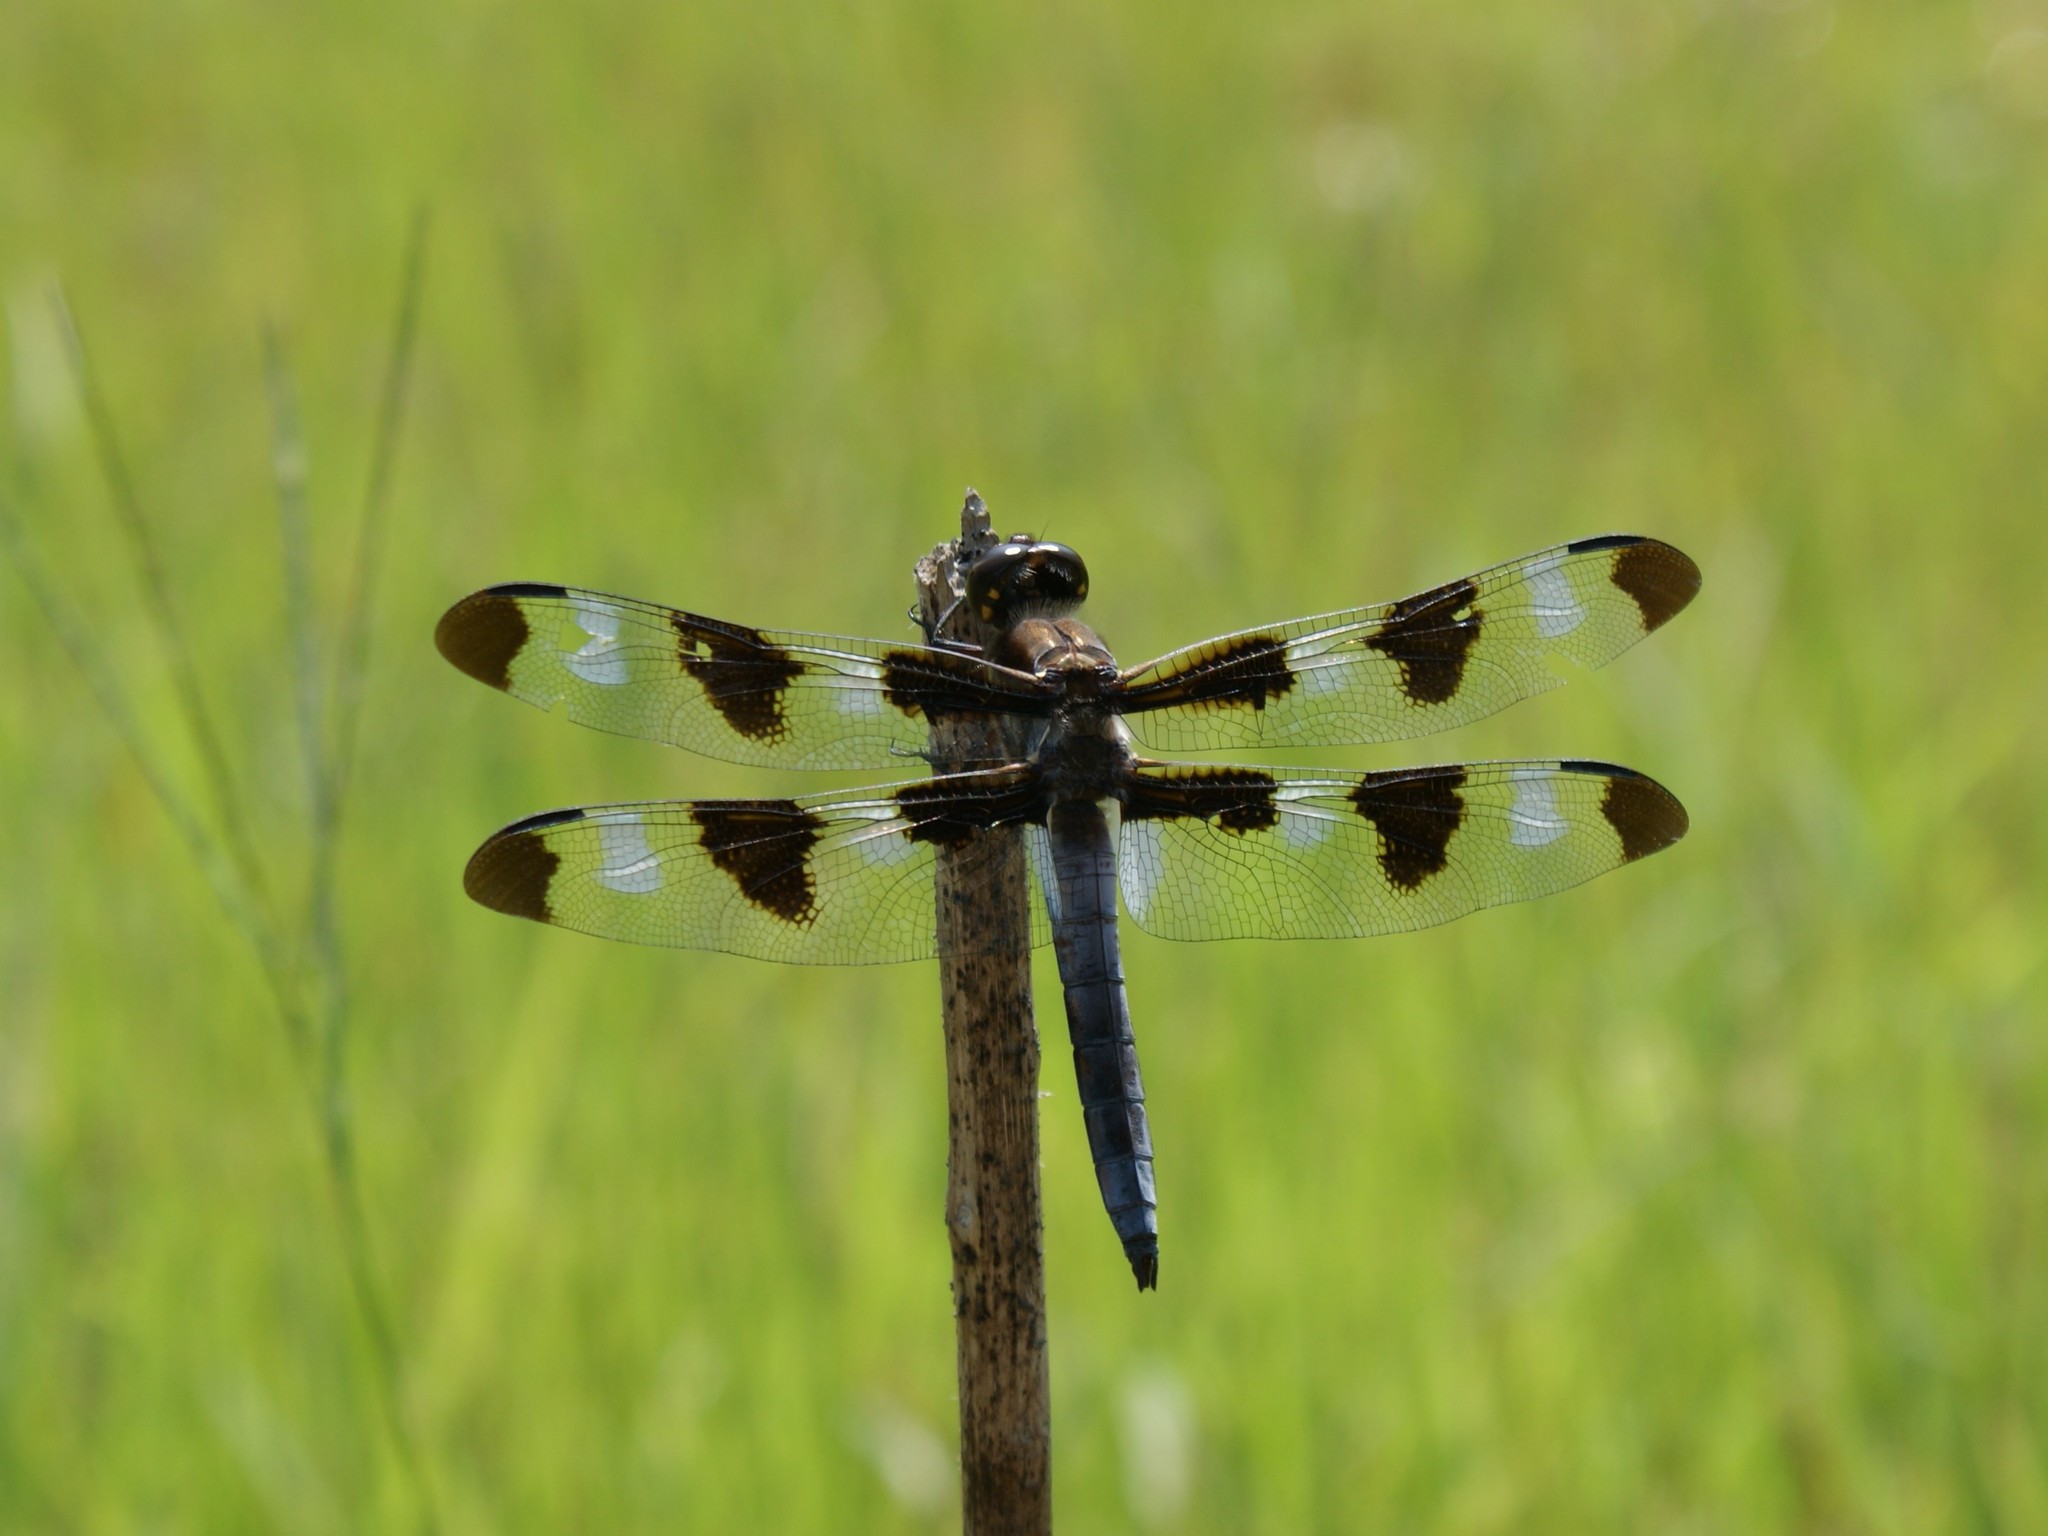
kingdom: Animalia
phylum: Arthropoda
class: Insecta
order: Odonata
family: Libellulidae
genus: Libellula
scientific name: Libellula pulchella
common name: Twelve-spotted skimmer
